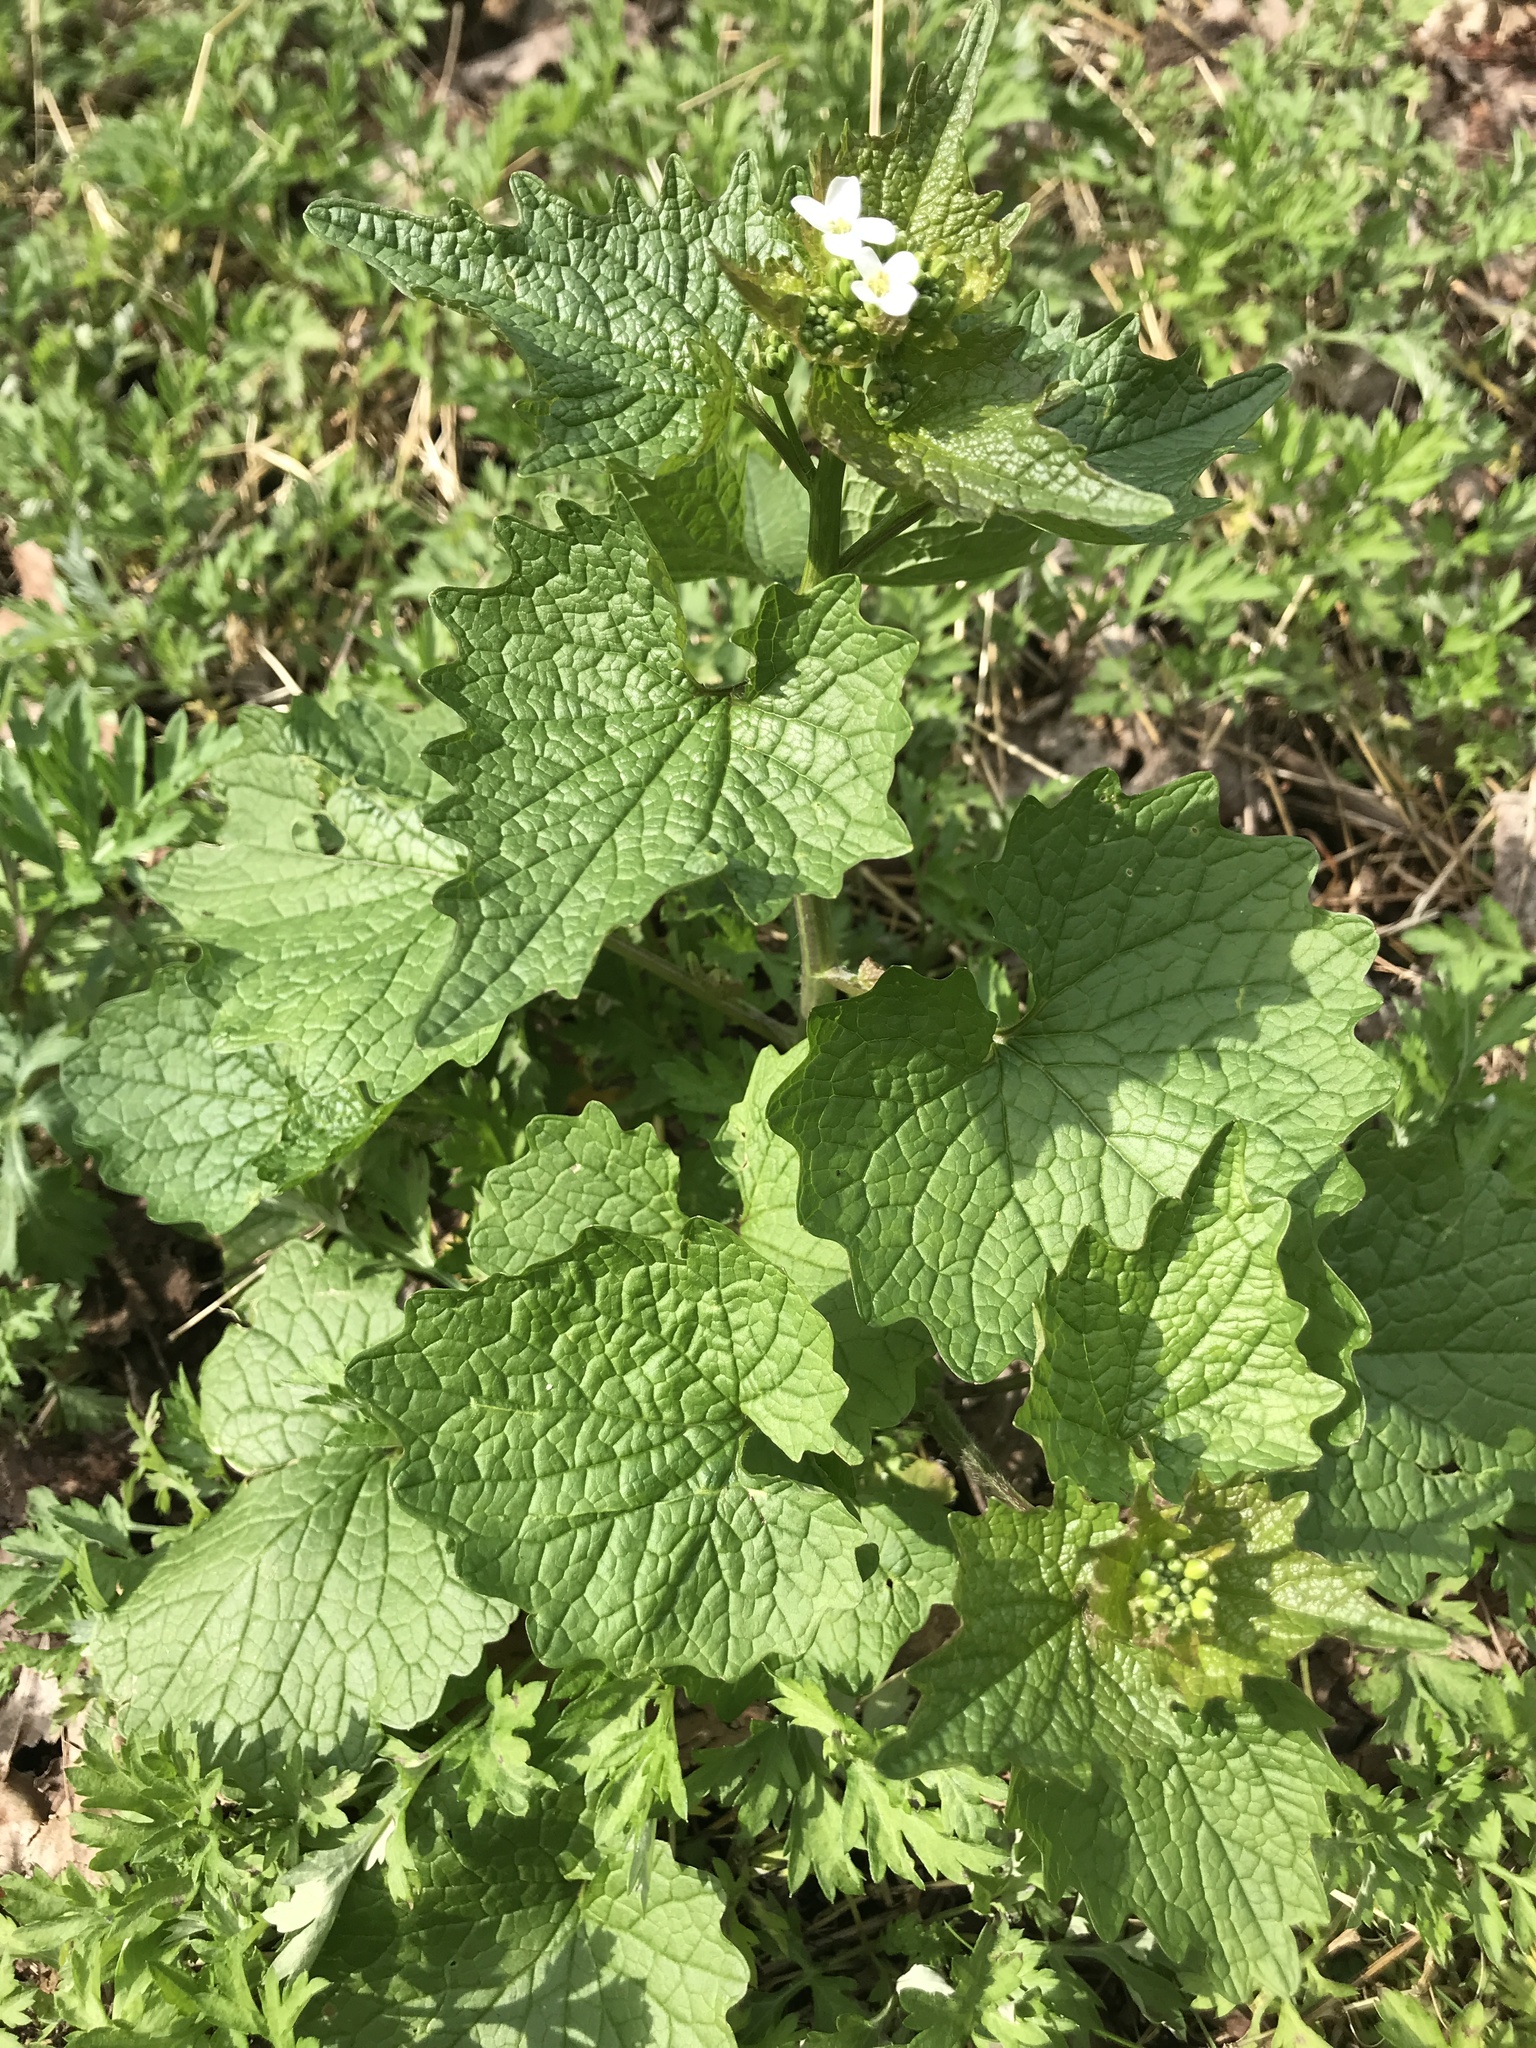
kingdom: Plantae
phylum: Tracheophyta
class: Magnoliopsida
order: Brassicales
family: Brassicaceae
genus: Alliaria
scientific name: Alliaria petiolata
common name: Garlic mustard
